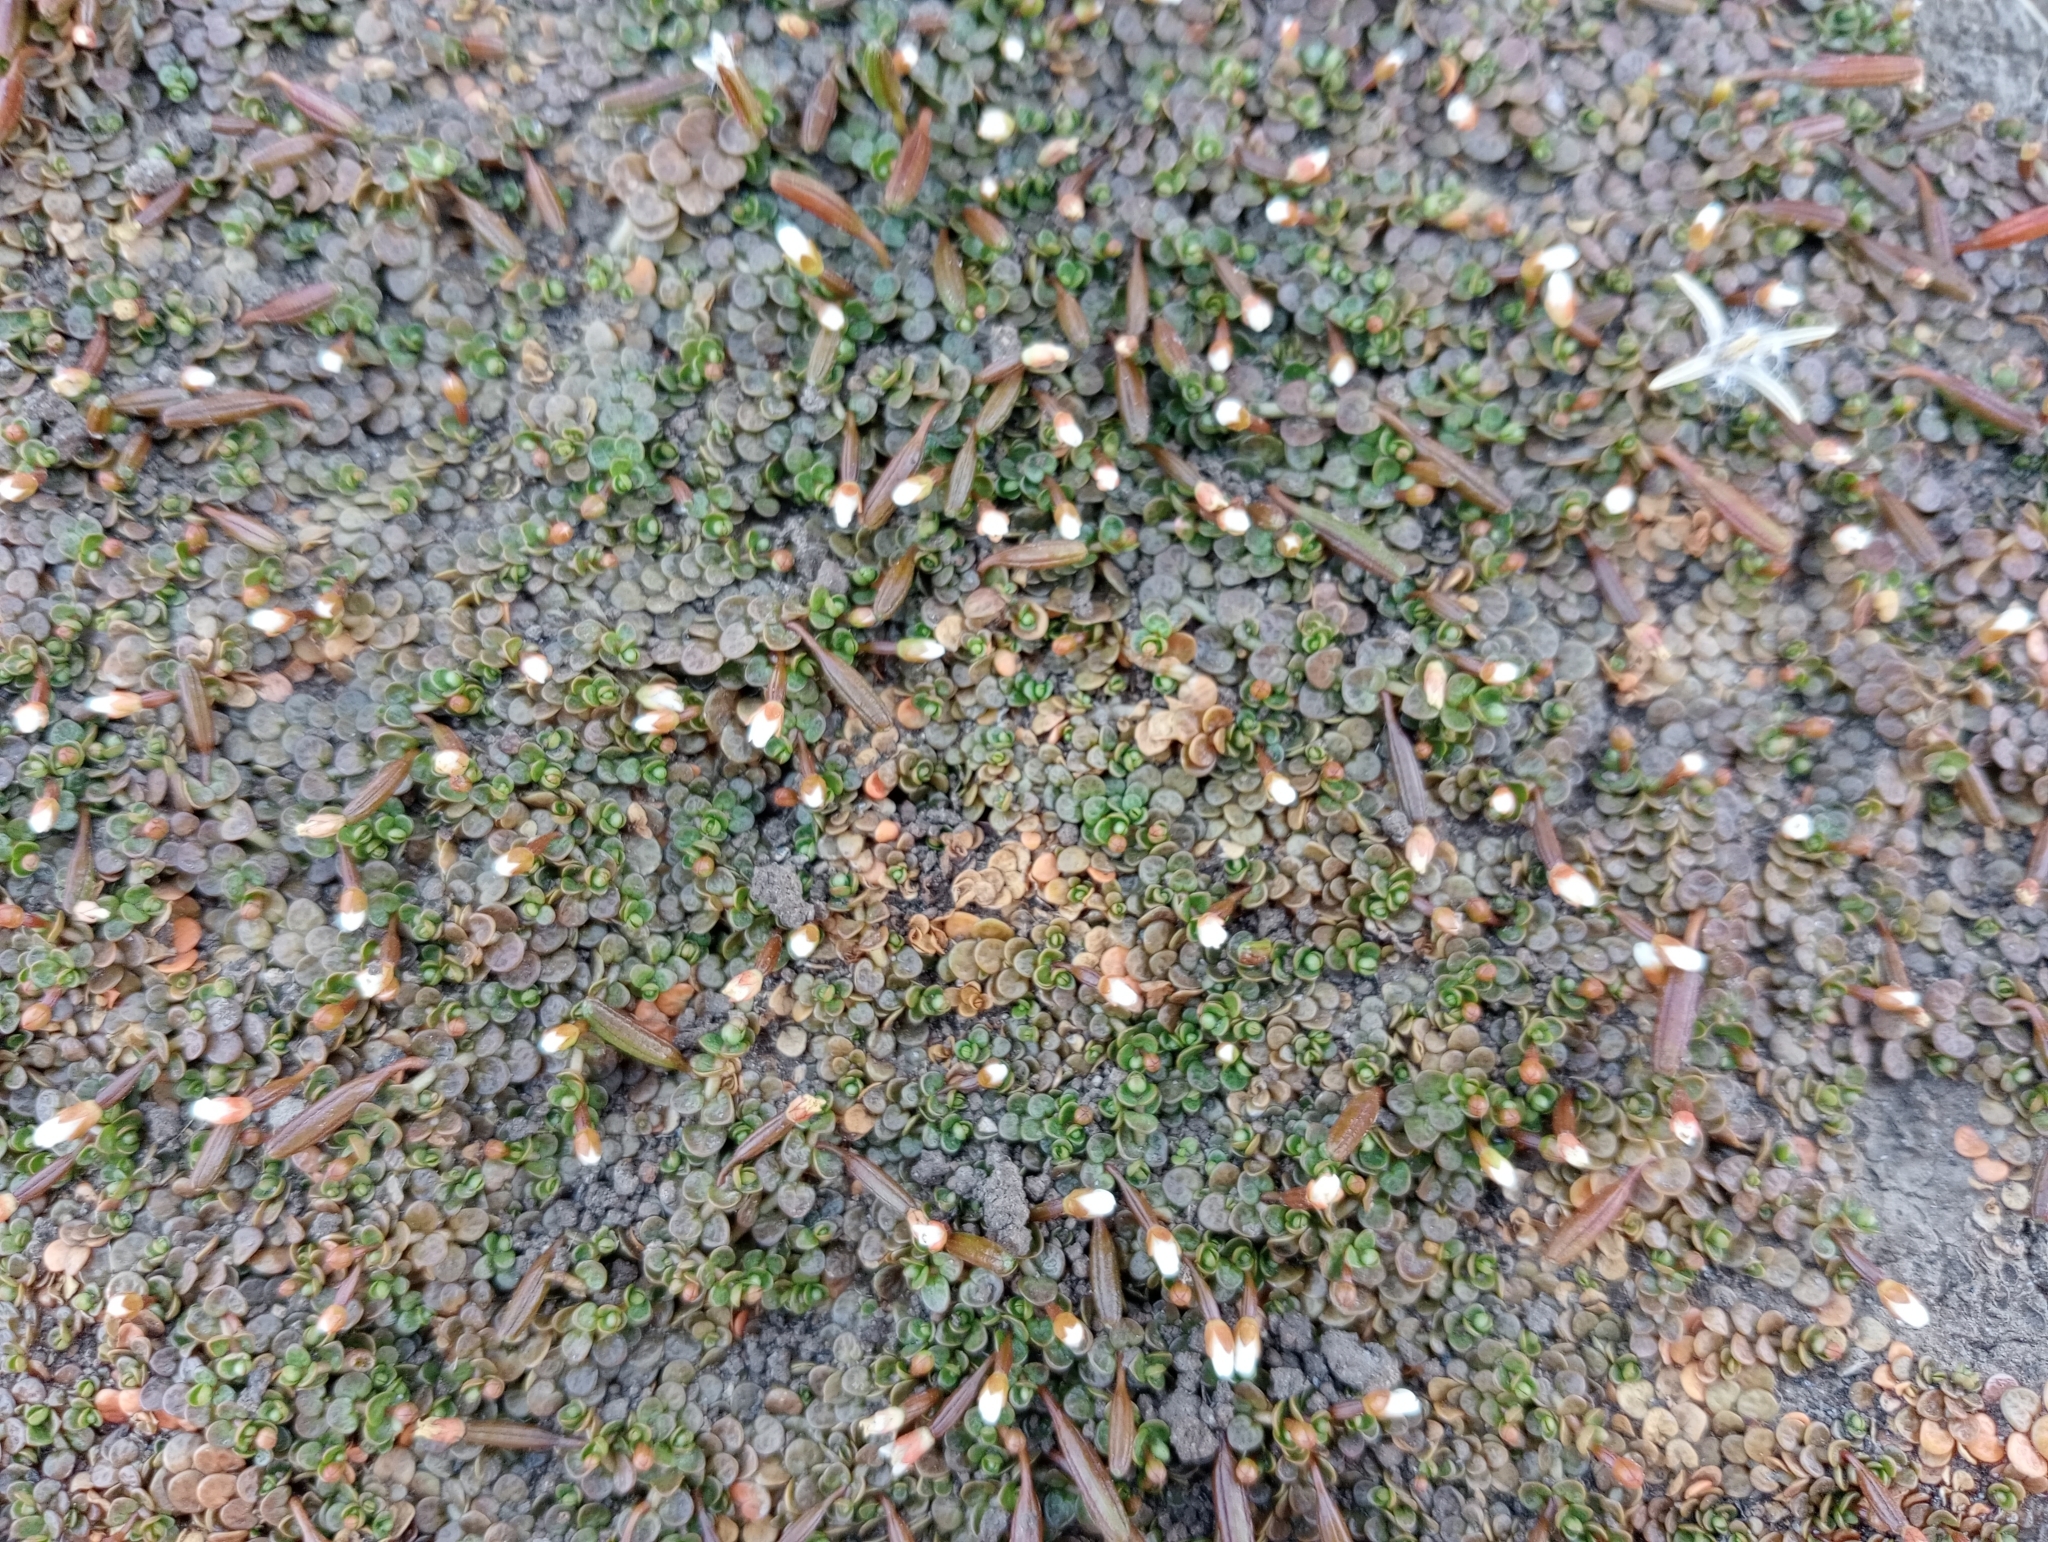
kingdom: Plantae
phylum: Tracheophyta
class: Magnoliopsida
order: Myrtales
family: Onagraceae
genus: Epilobium
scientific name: Epilobium komarovianum
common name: Bronzy willowherb
